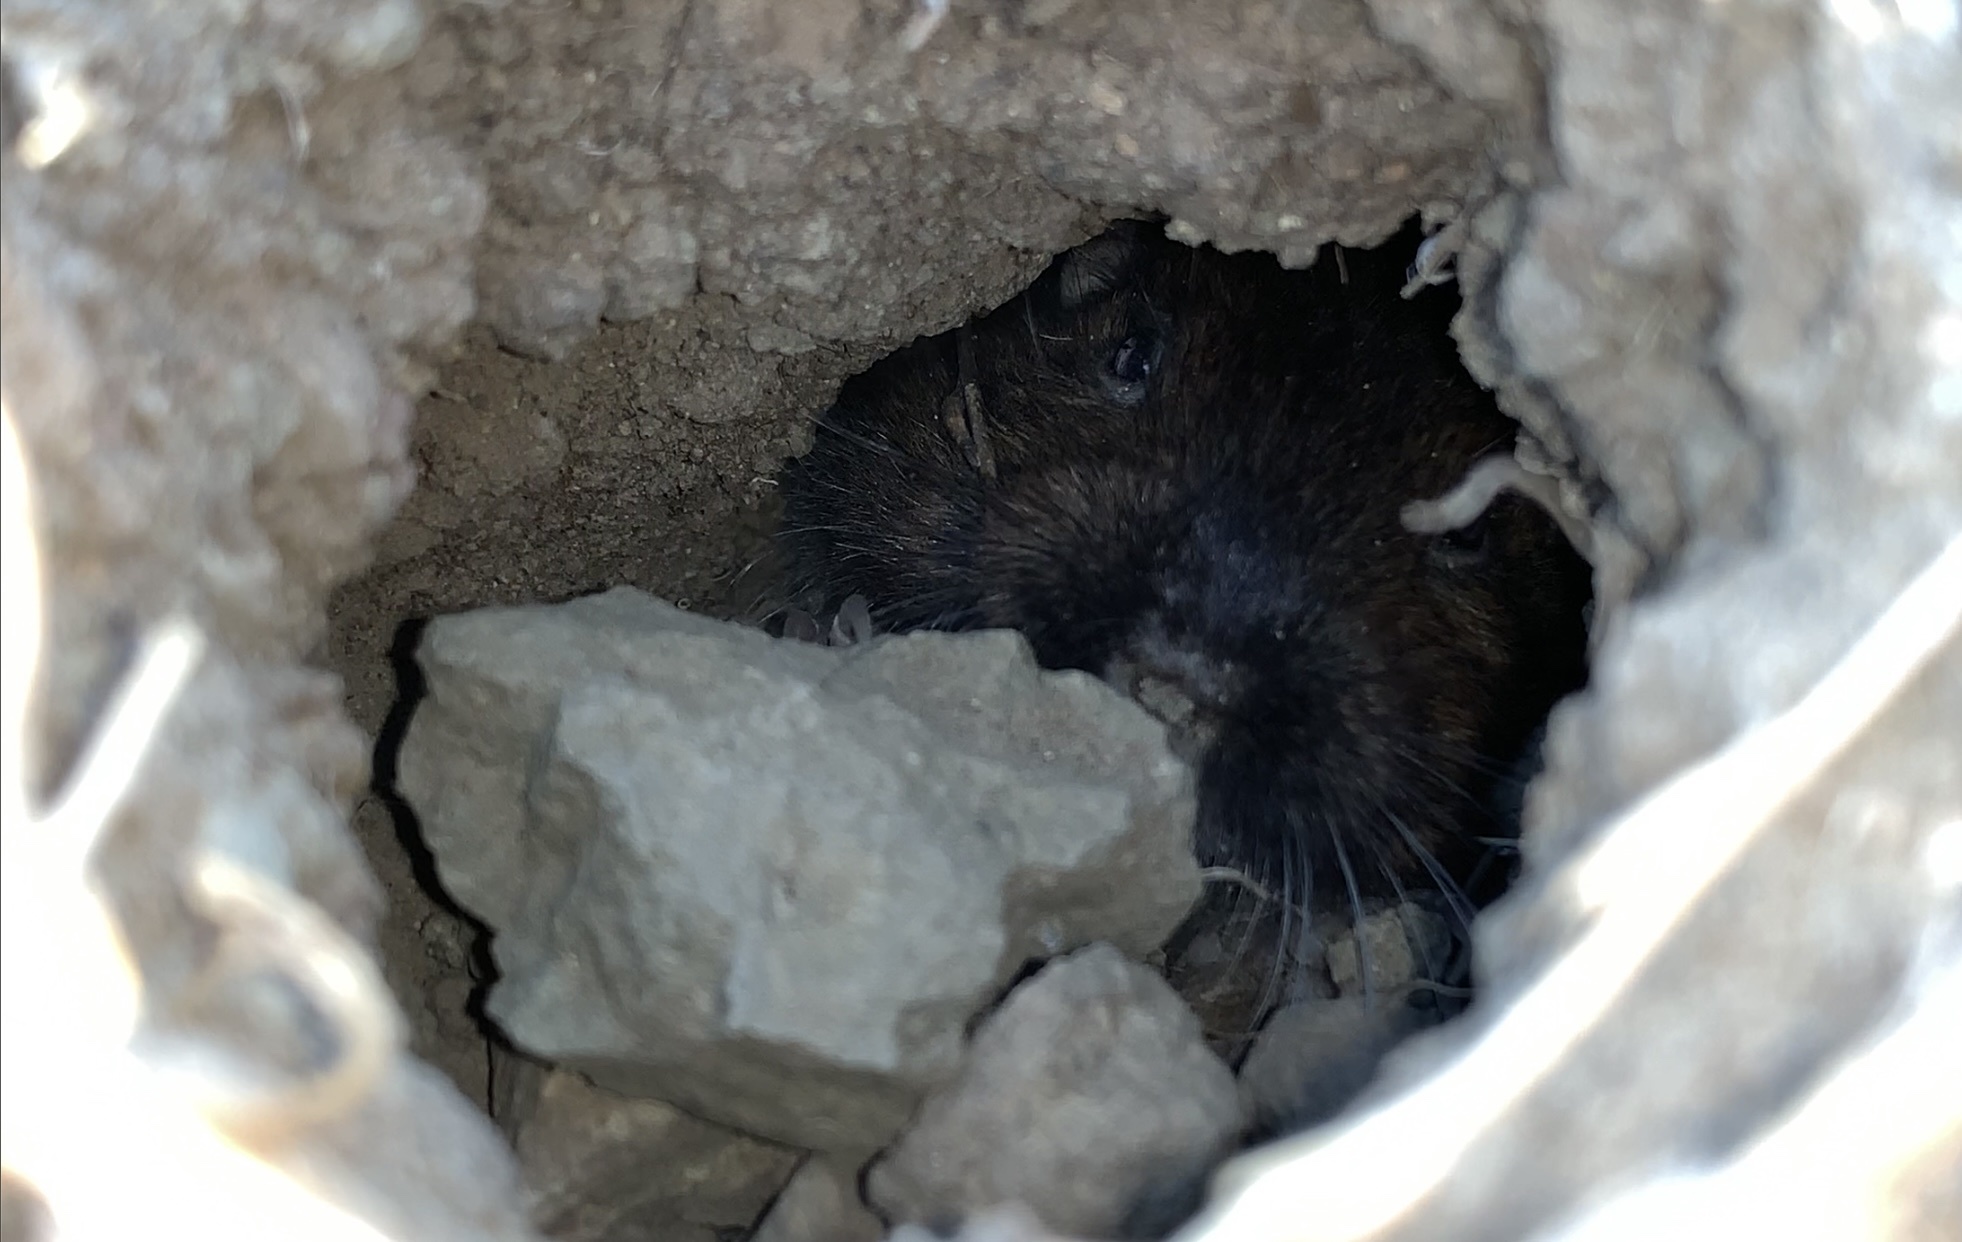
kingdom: Animalia
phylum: Chordata
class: Mammalia
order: Rodentia
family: Geomyidae
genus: Thomomys
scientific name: Thomomys bottae
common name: Botta's pocket gopher
